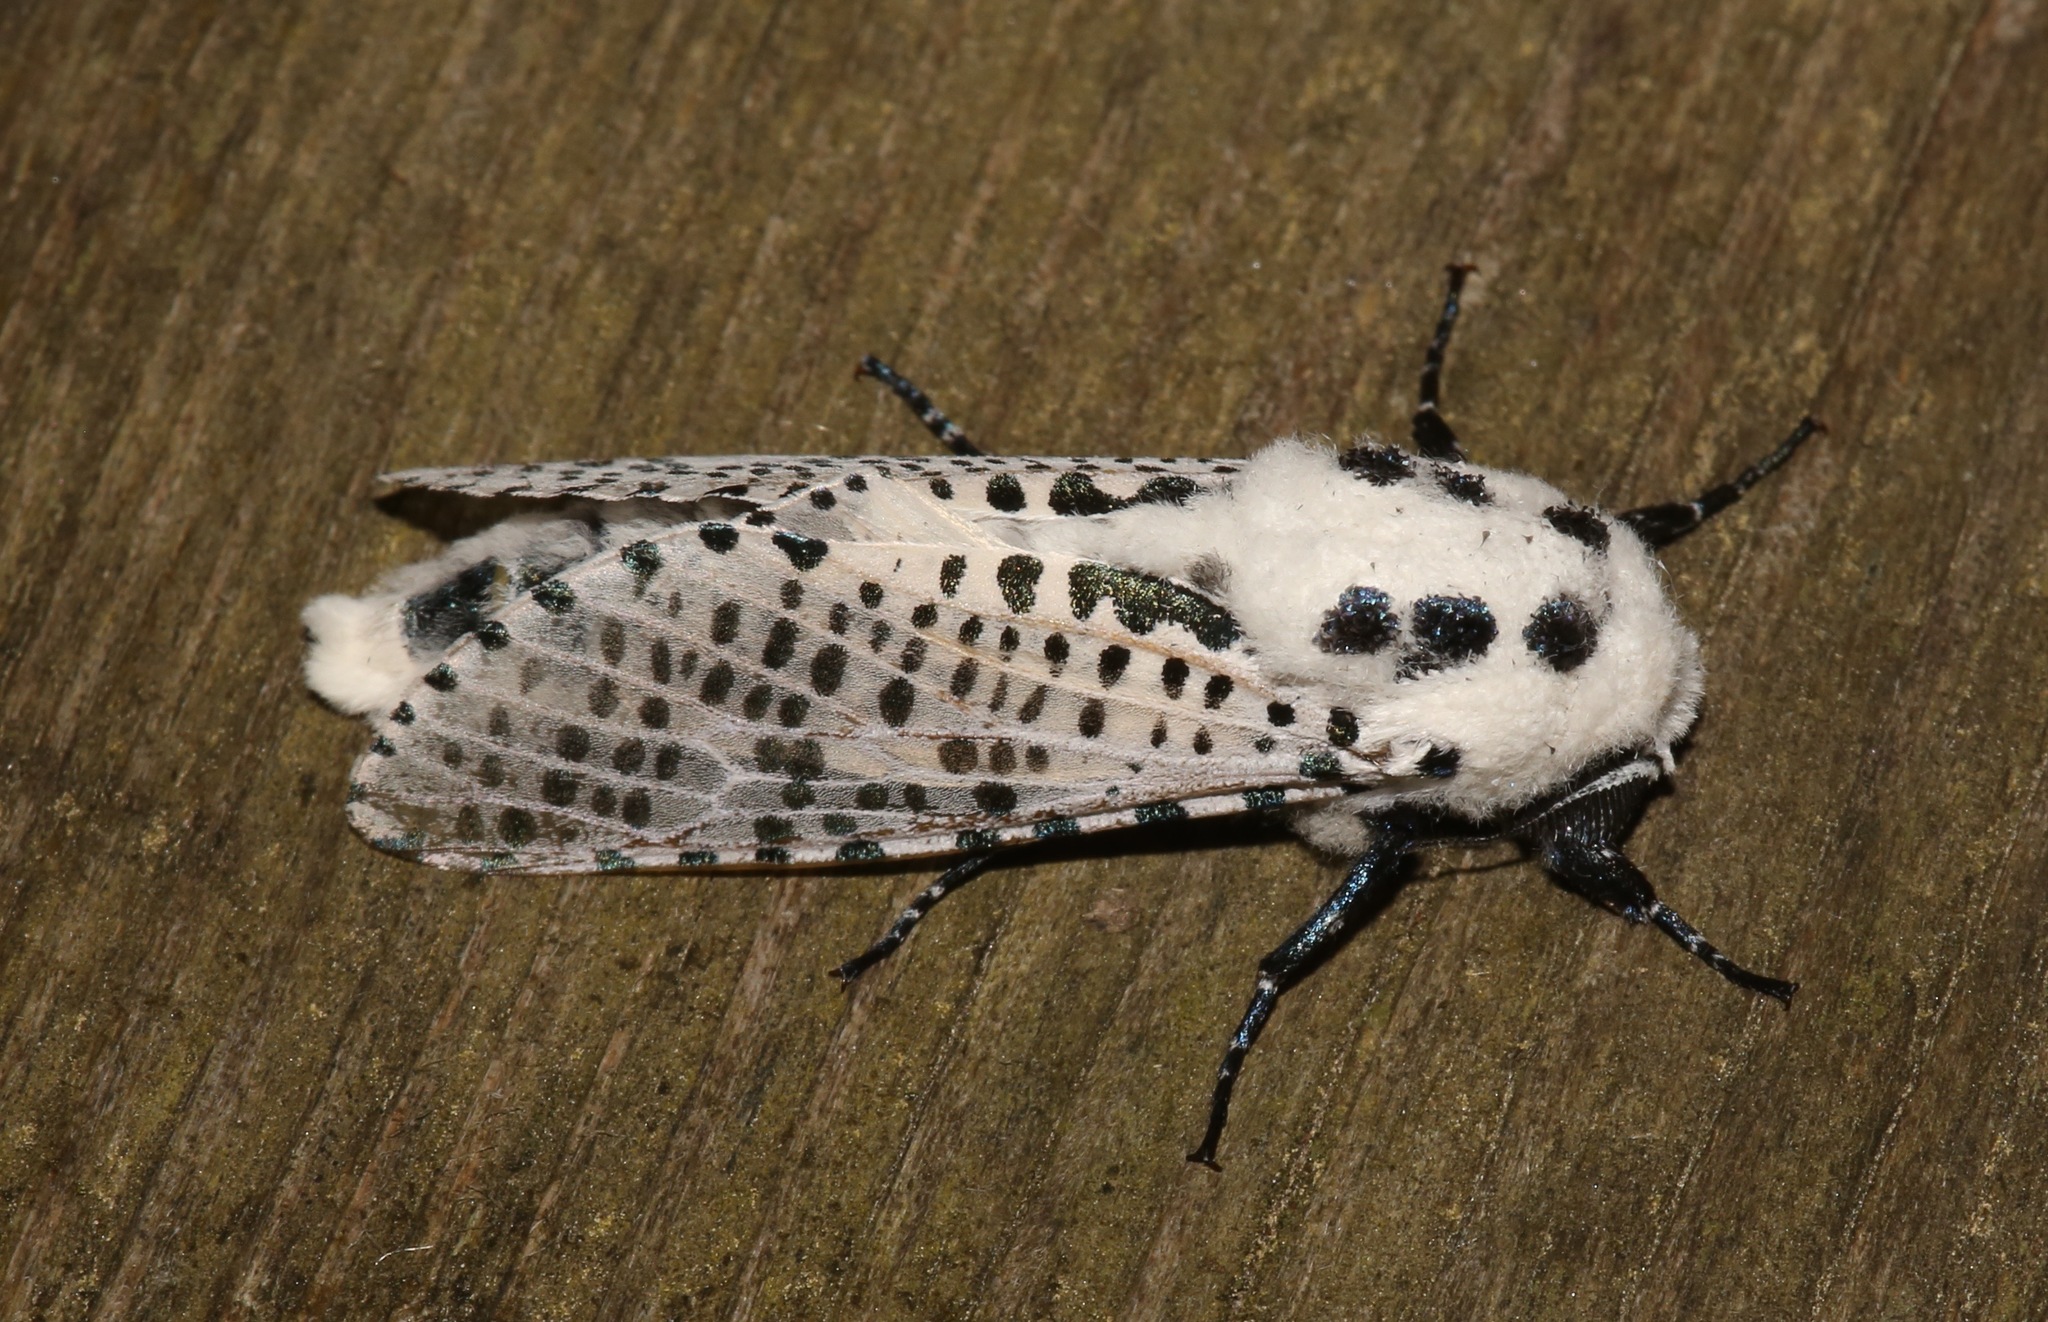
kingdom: Animalia
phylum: Arthropoda
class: Insecta
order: Lepidoptera
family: Cossidae
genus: Zeuzera
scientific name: Zeuzera pyrina
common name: Leopard moth
